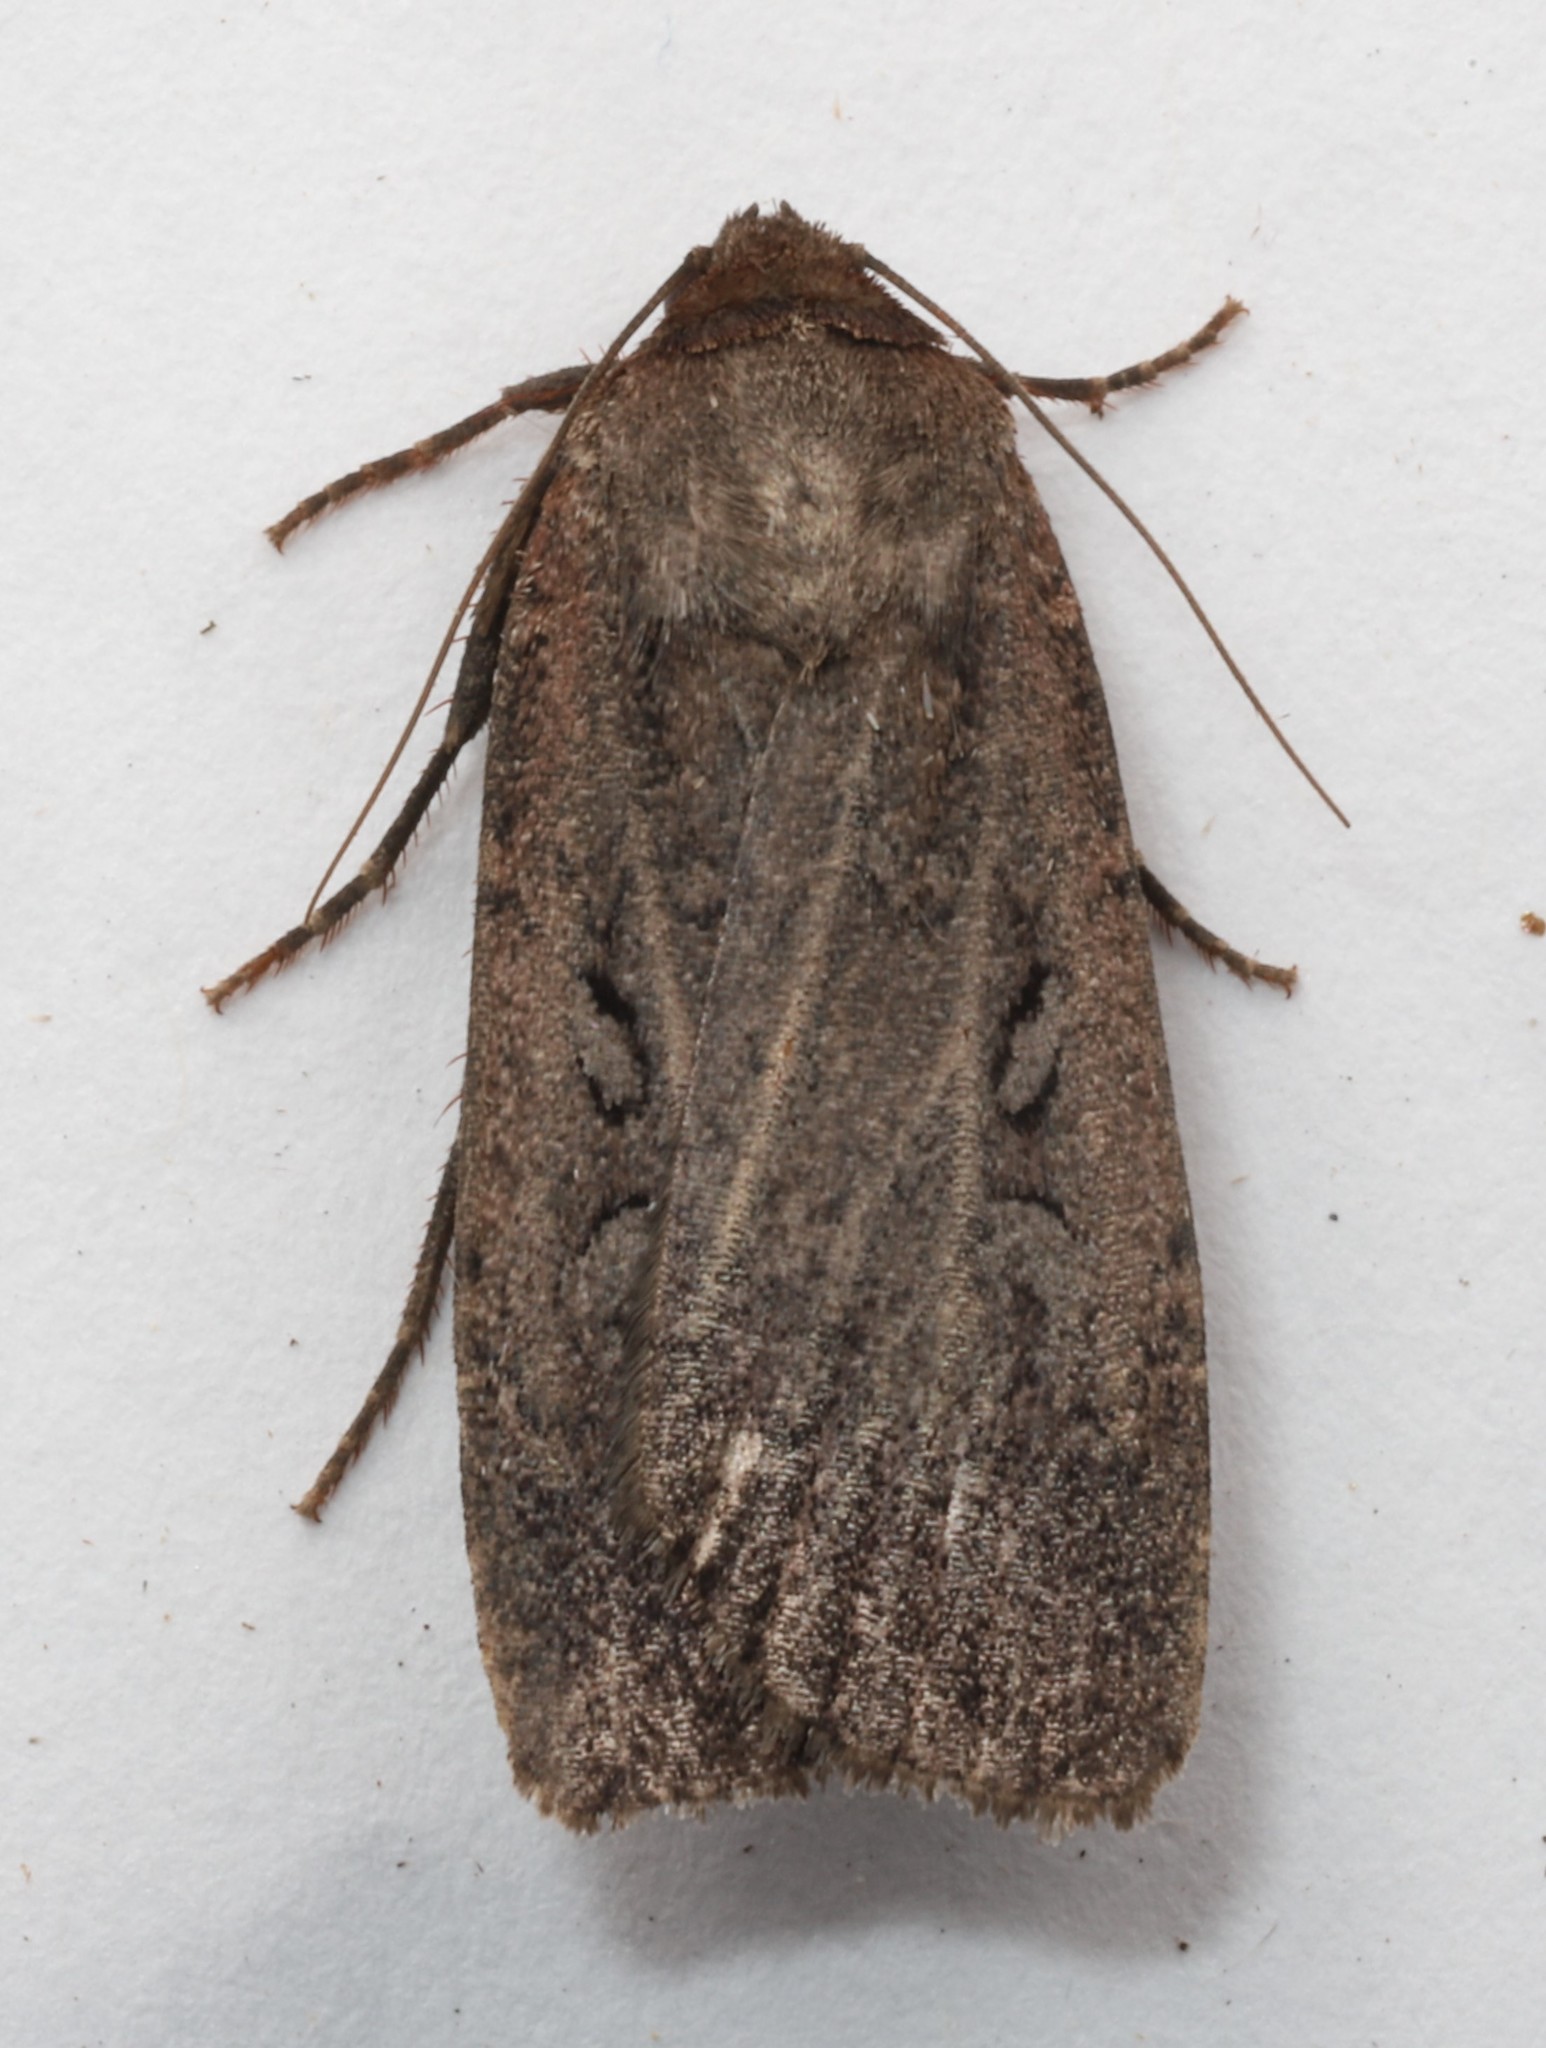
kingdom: Animalia
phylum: Arthropoda
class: Insecta
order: Lepidoptera
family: Noctuidae
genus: Spaelotis
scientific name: Spaelotis clandestina
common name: Clandestine dart
